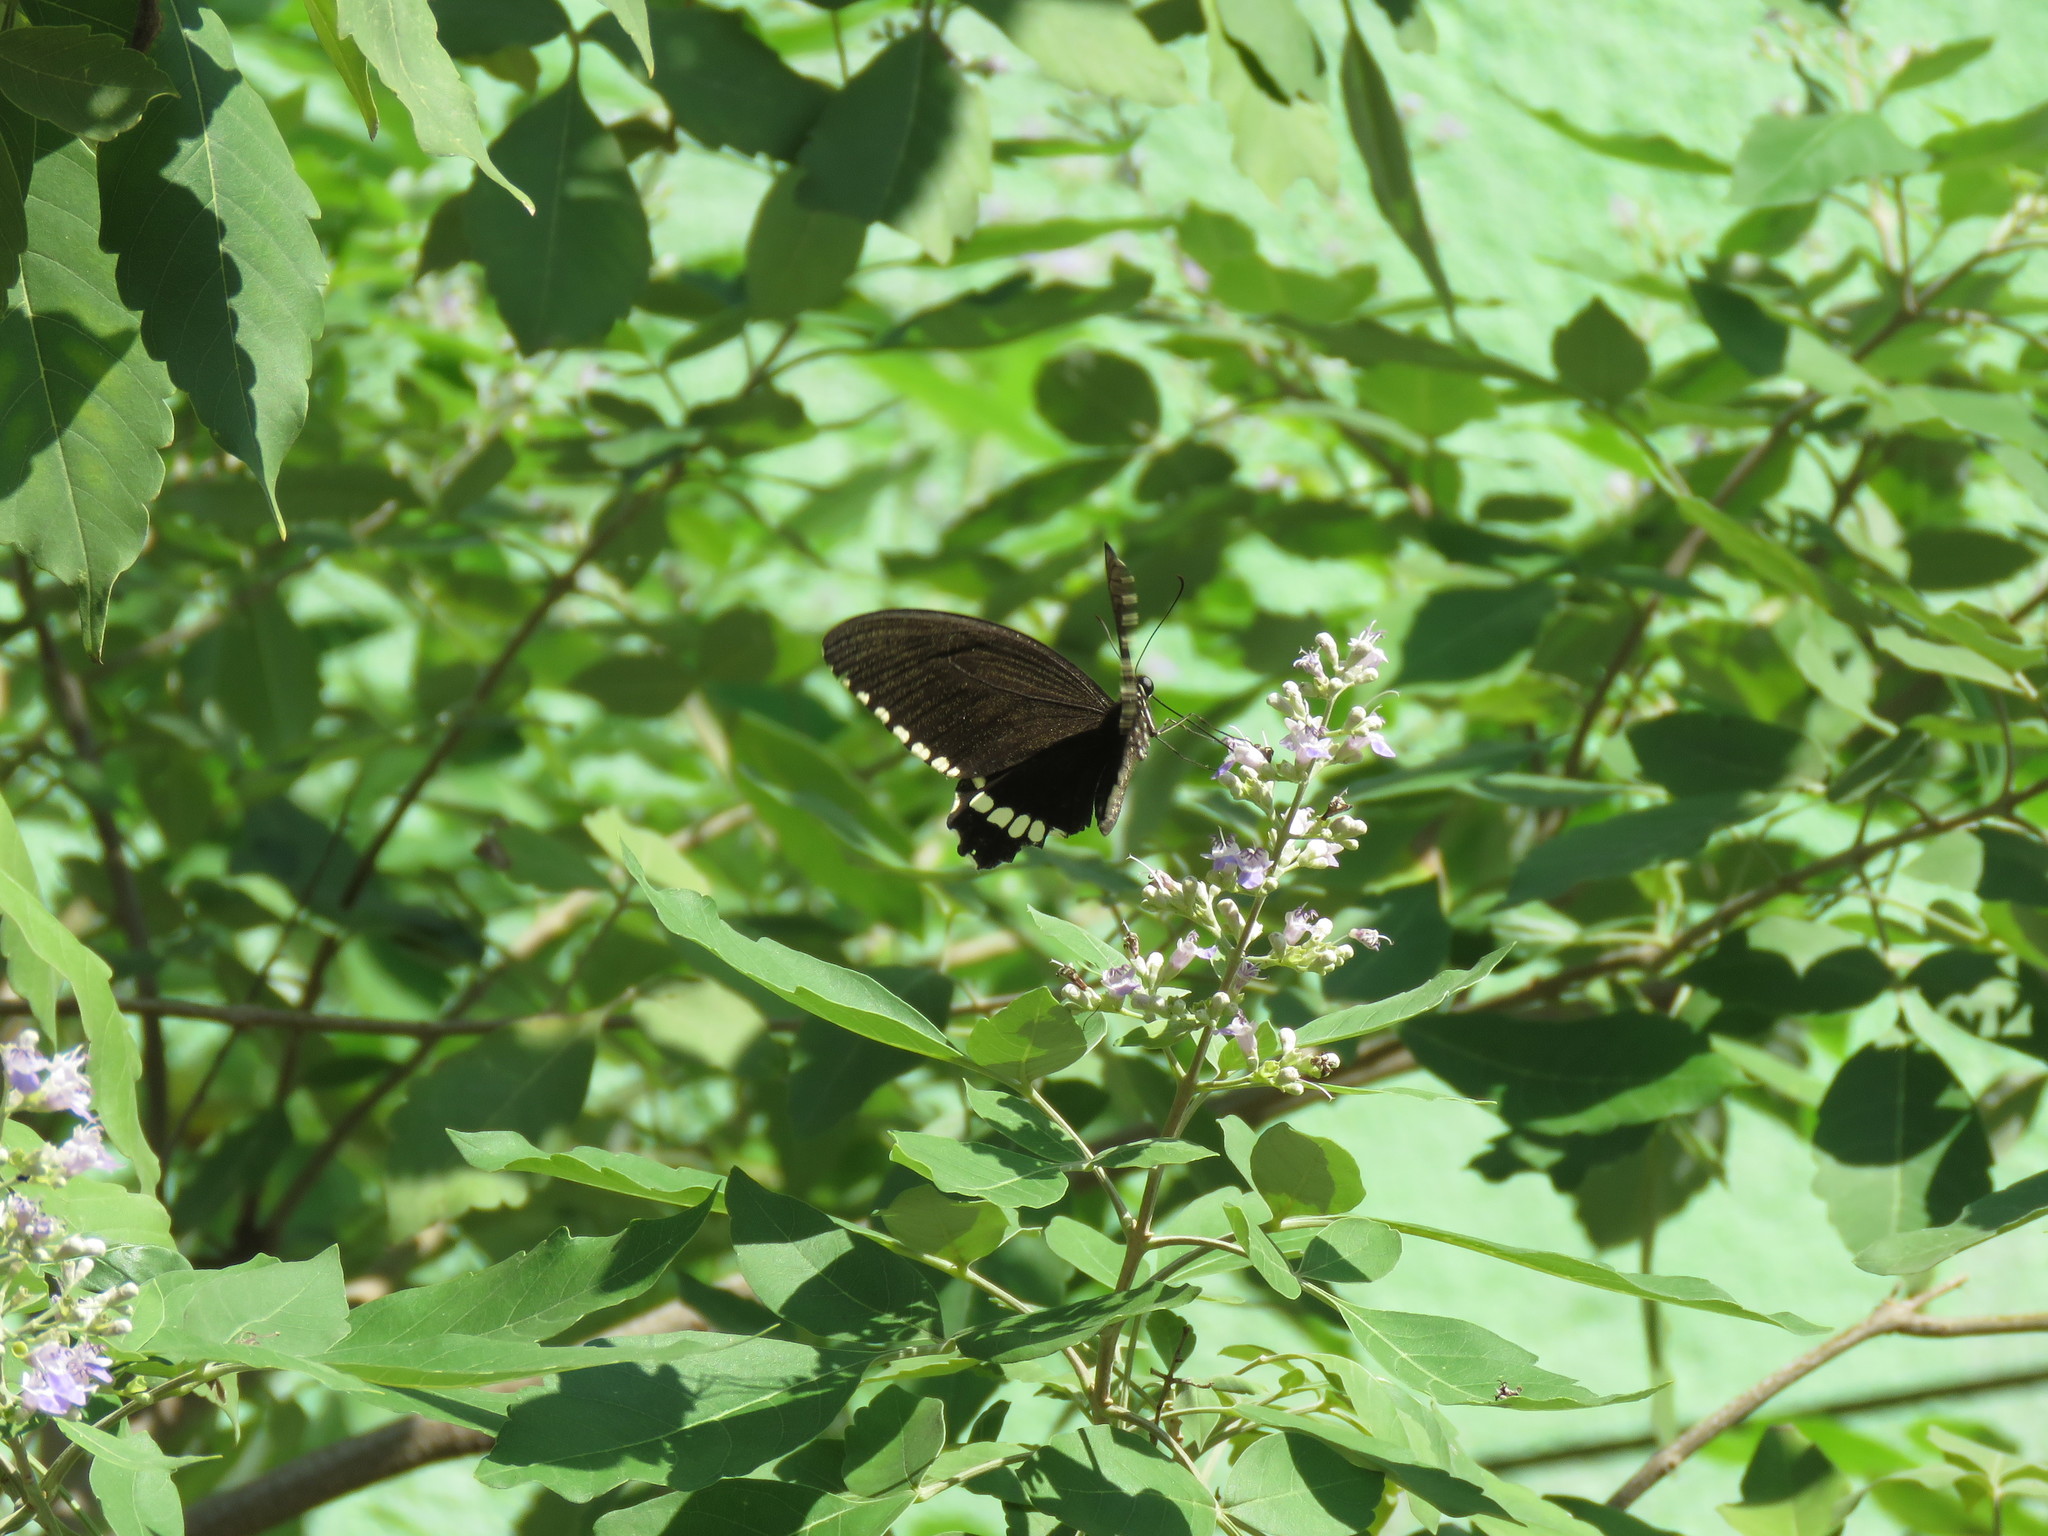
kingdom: Animalia
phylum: Arthropoda
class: Insecta
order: Lepidoptera
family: Papilionidae
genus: Papilio
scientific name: Papilio polytes
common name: Common mormon
